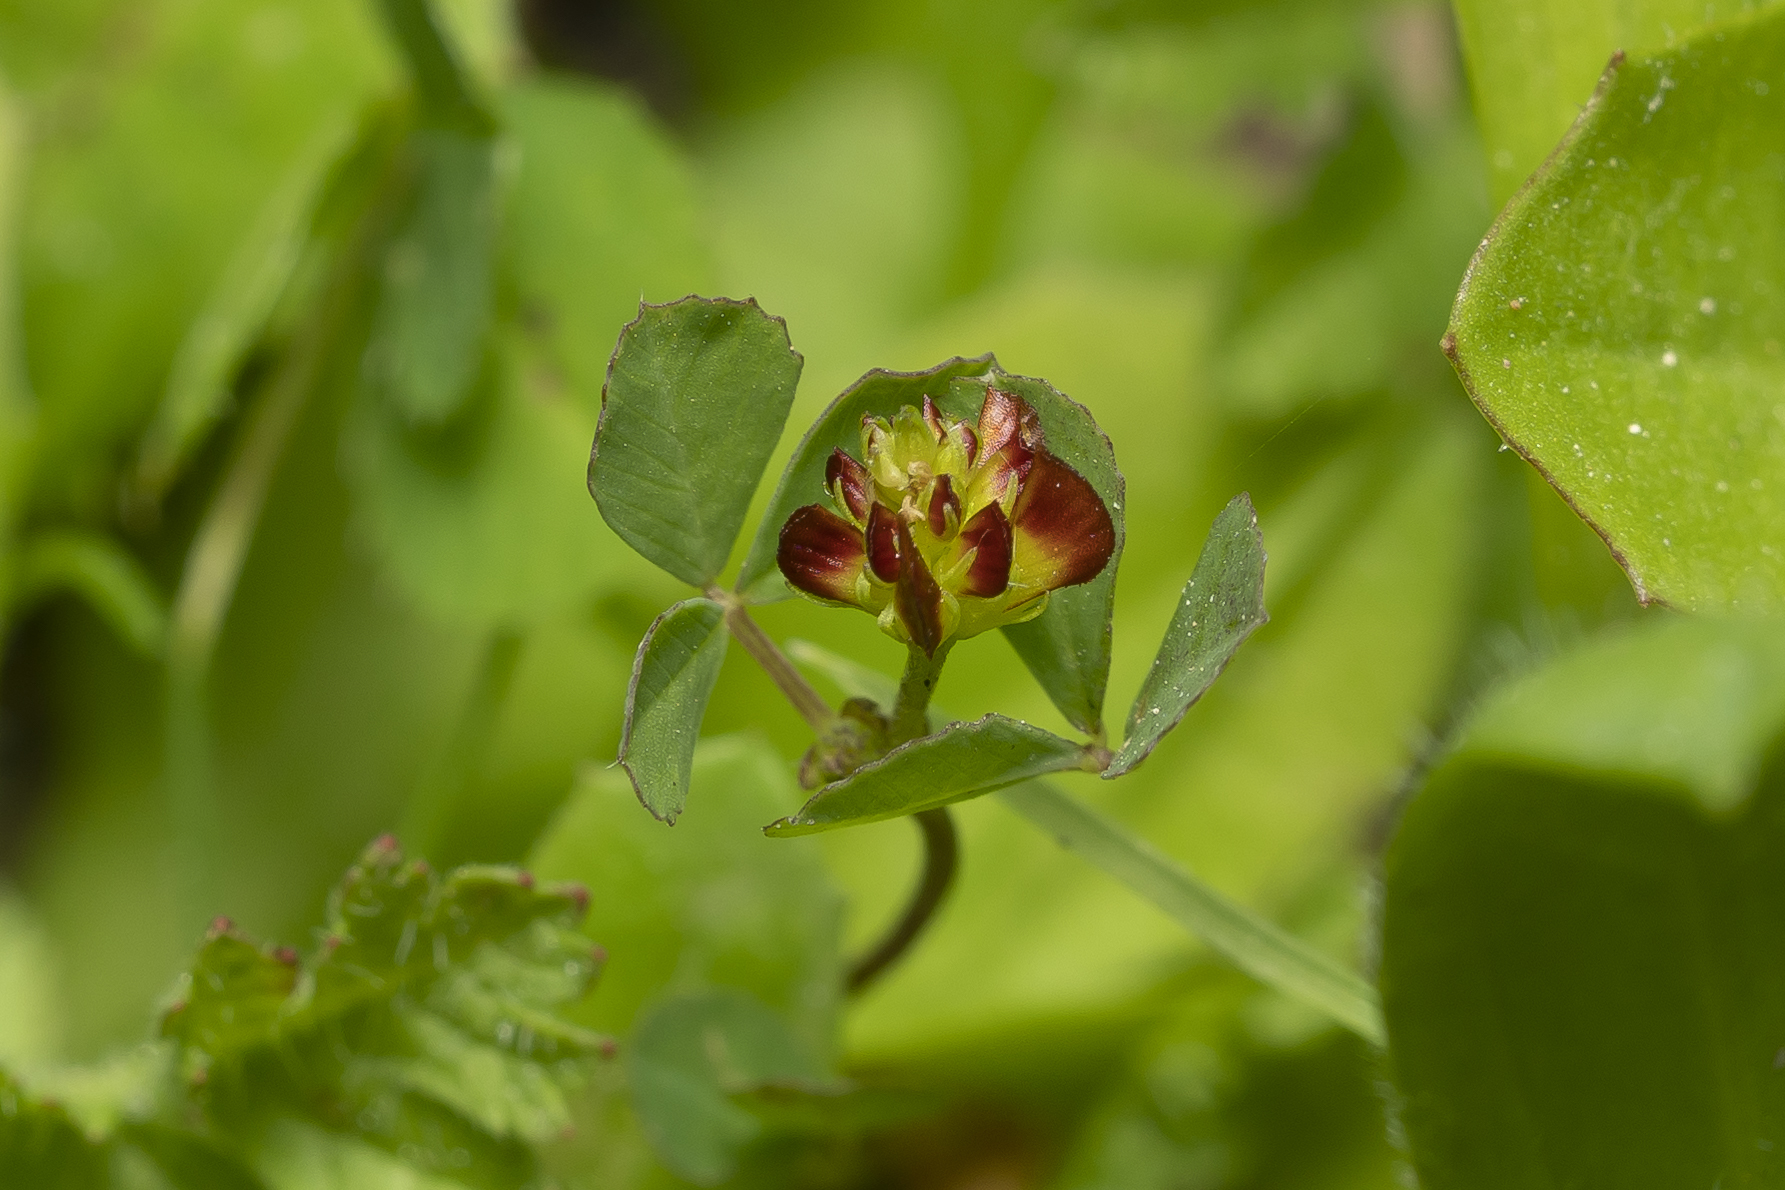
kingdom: Plantae
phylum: Tracheophyta
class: Magnoliopsida
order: Fabales
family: Fabaceae
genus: Trifolium
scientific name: Trifolium campestre
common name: Field clover
